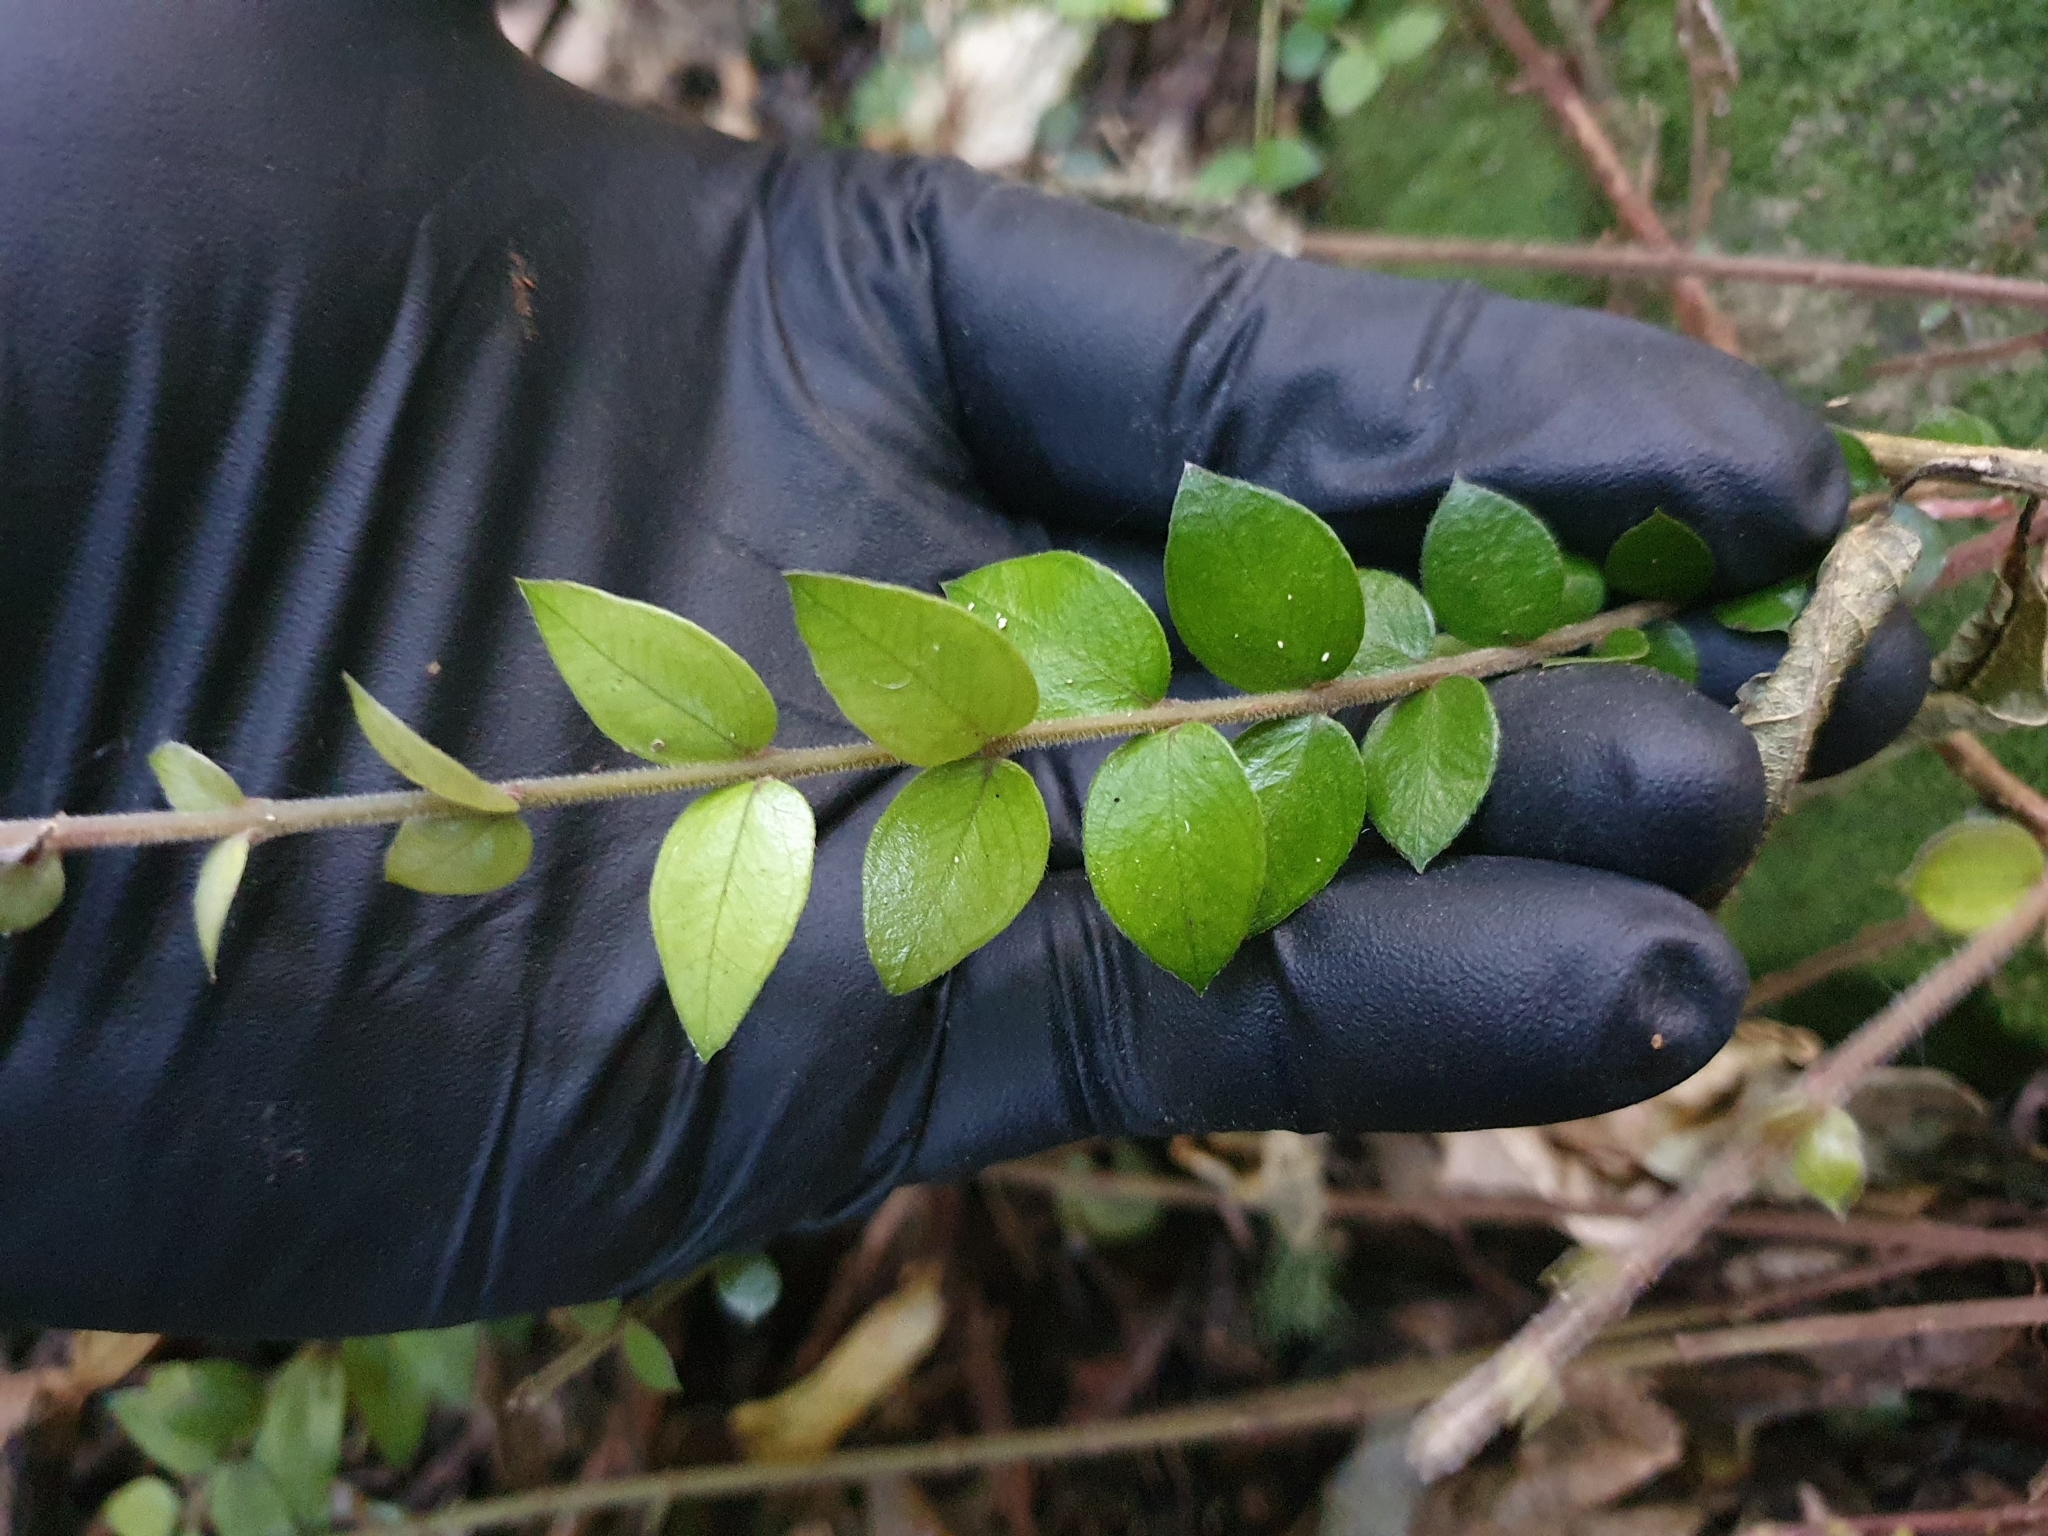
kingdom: Plantae
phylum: Tracheophyta
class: Magnoliopsida
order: Myrtales
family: Myrtaceae
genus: Metrosideros
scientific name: Metrosideros diffusa
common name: Small ratavine
